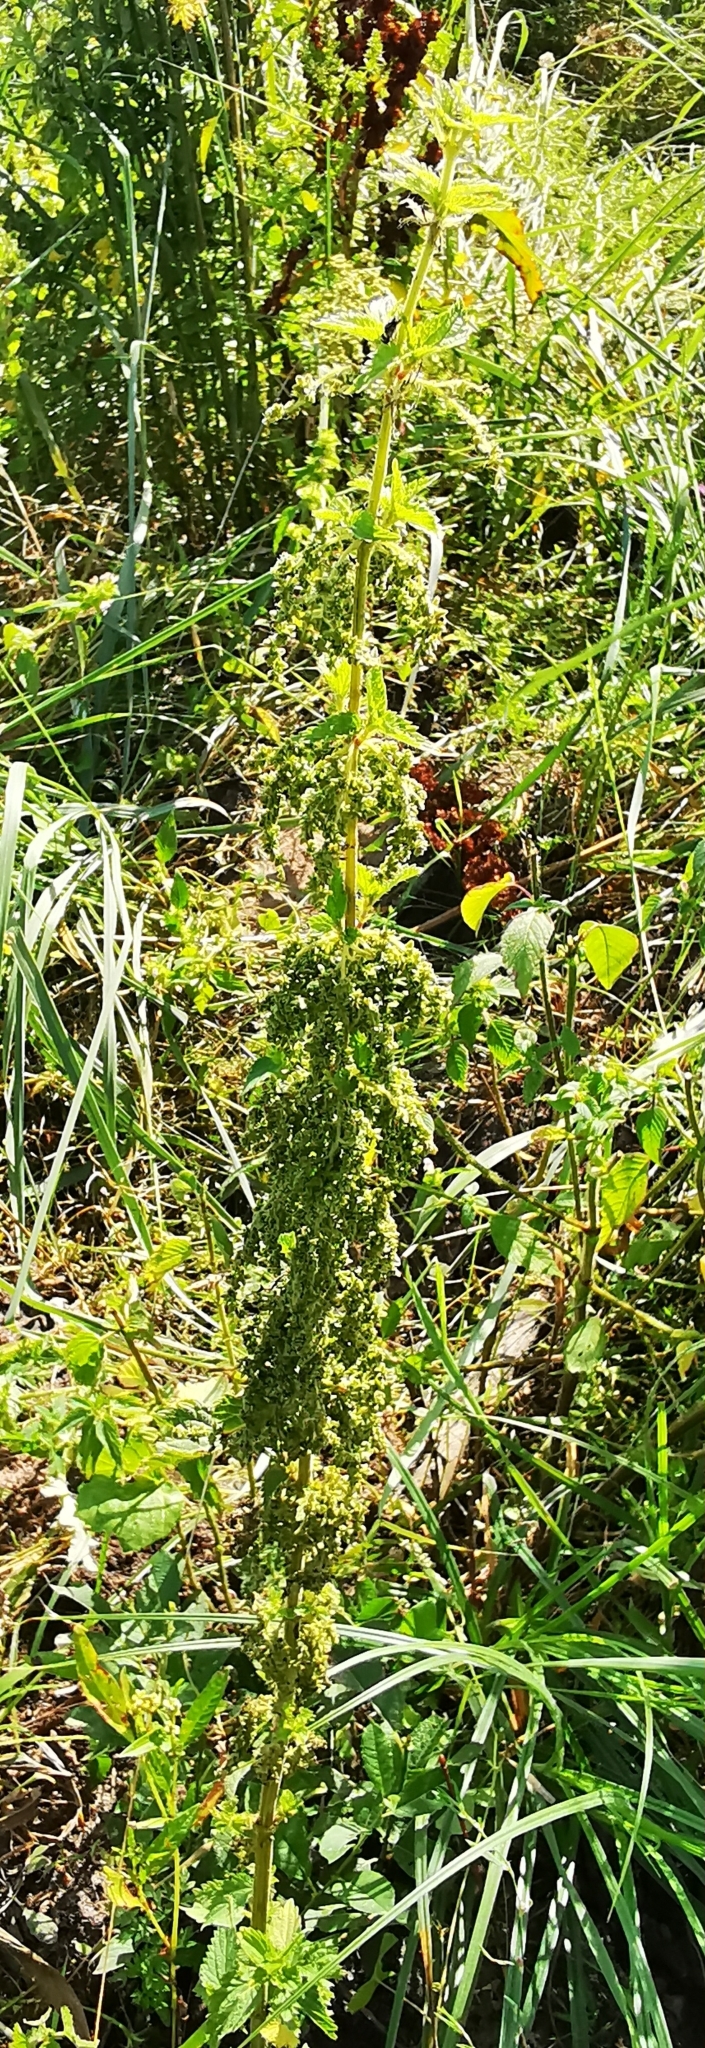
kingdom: Plantae
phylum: Tracheophyta
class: Magnoliopsida
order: Rosales
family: Urticaceae
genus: Urtica
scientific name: Urtica dioica
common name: Common nettle
